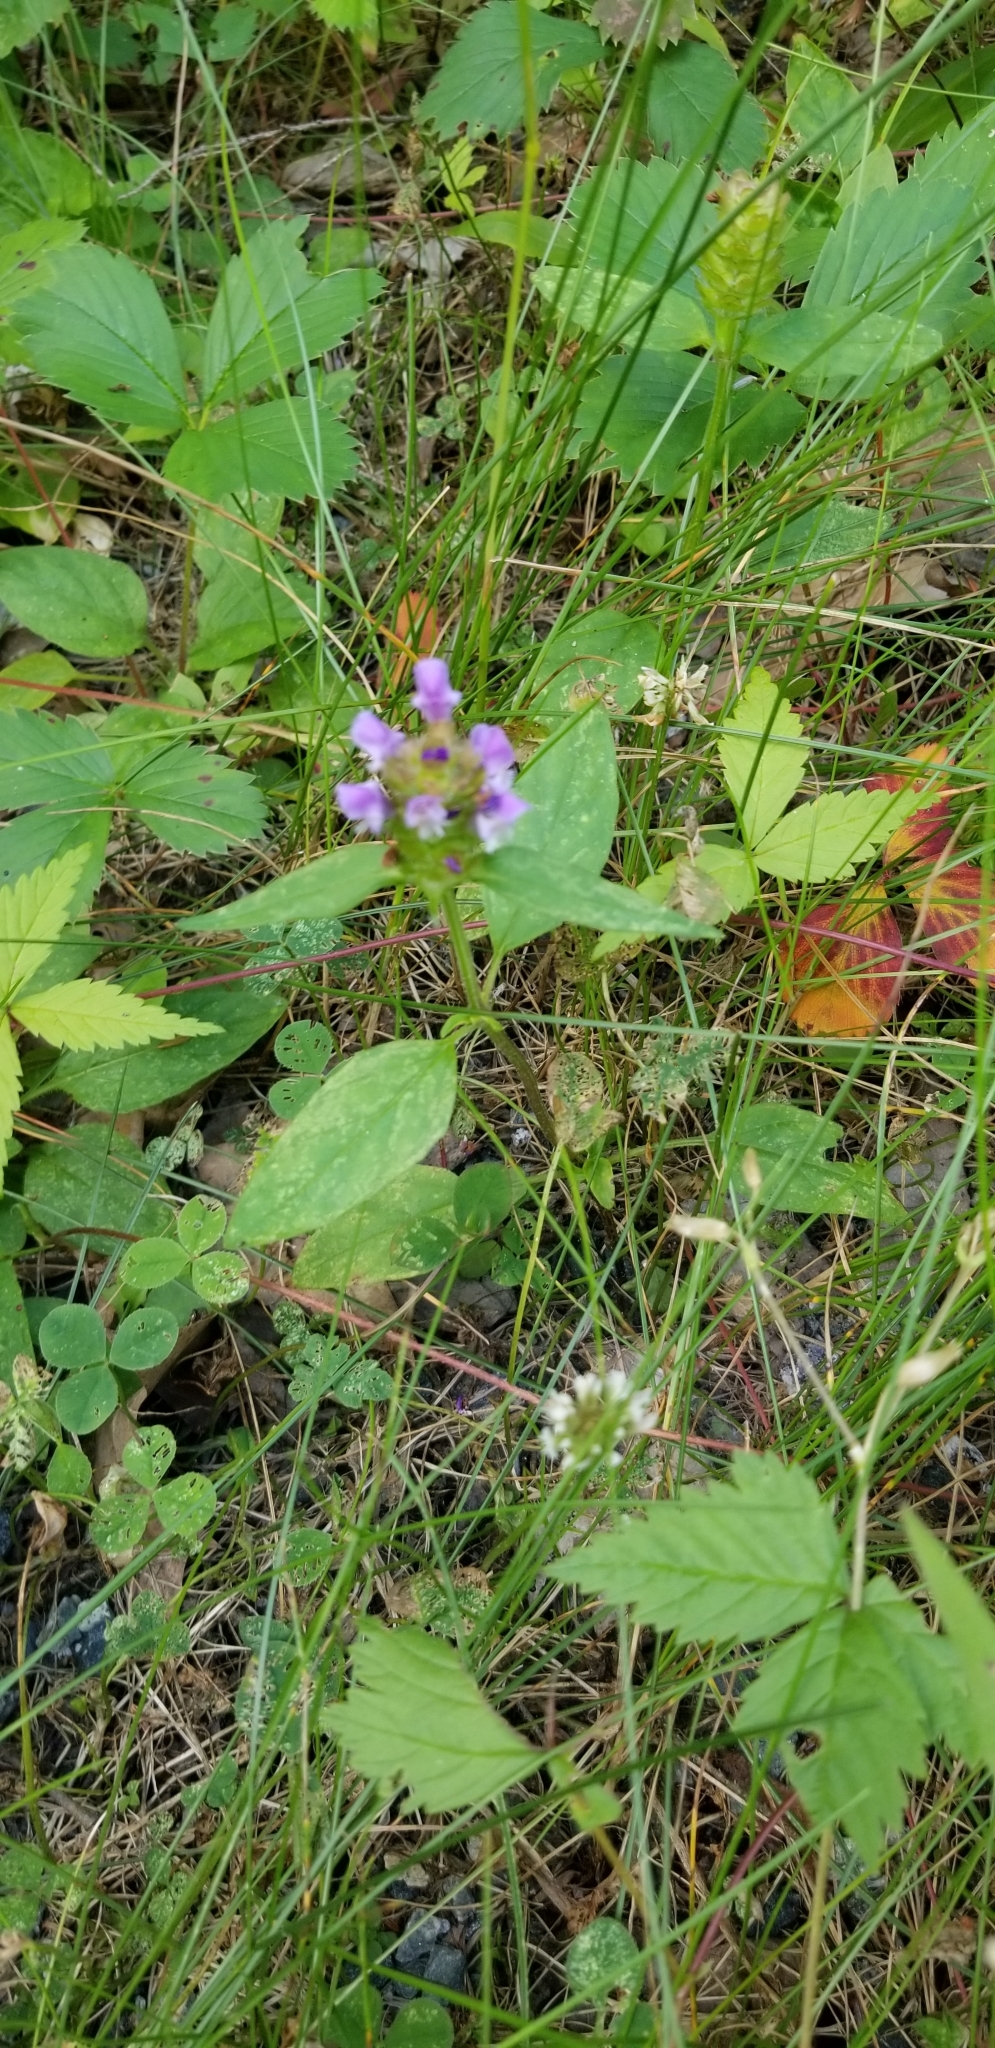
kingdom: Plantae
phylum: Tracheophyta
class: Magnoliopsida
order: Lamiales
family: Lamiaceae
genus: Prunella
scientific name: Prunella vulgaris
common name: Heal-all
